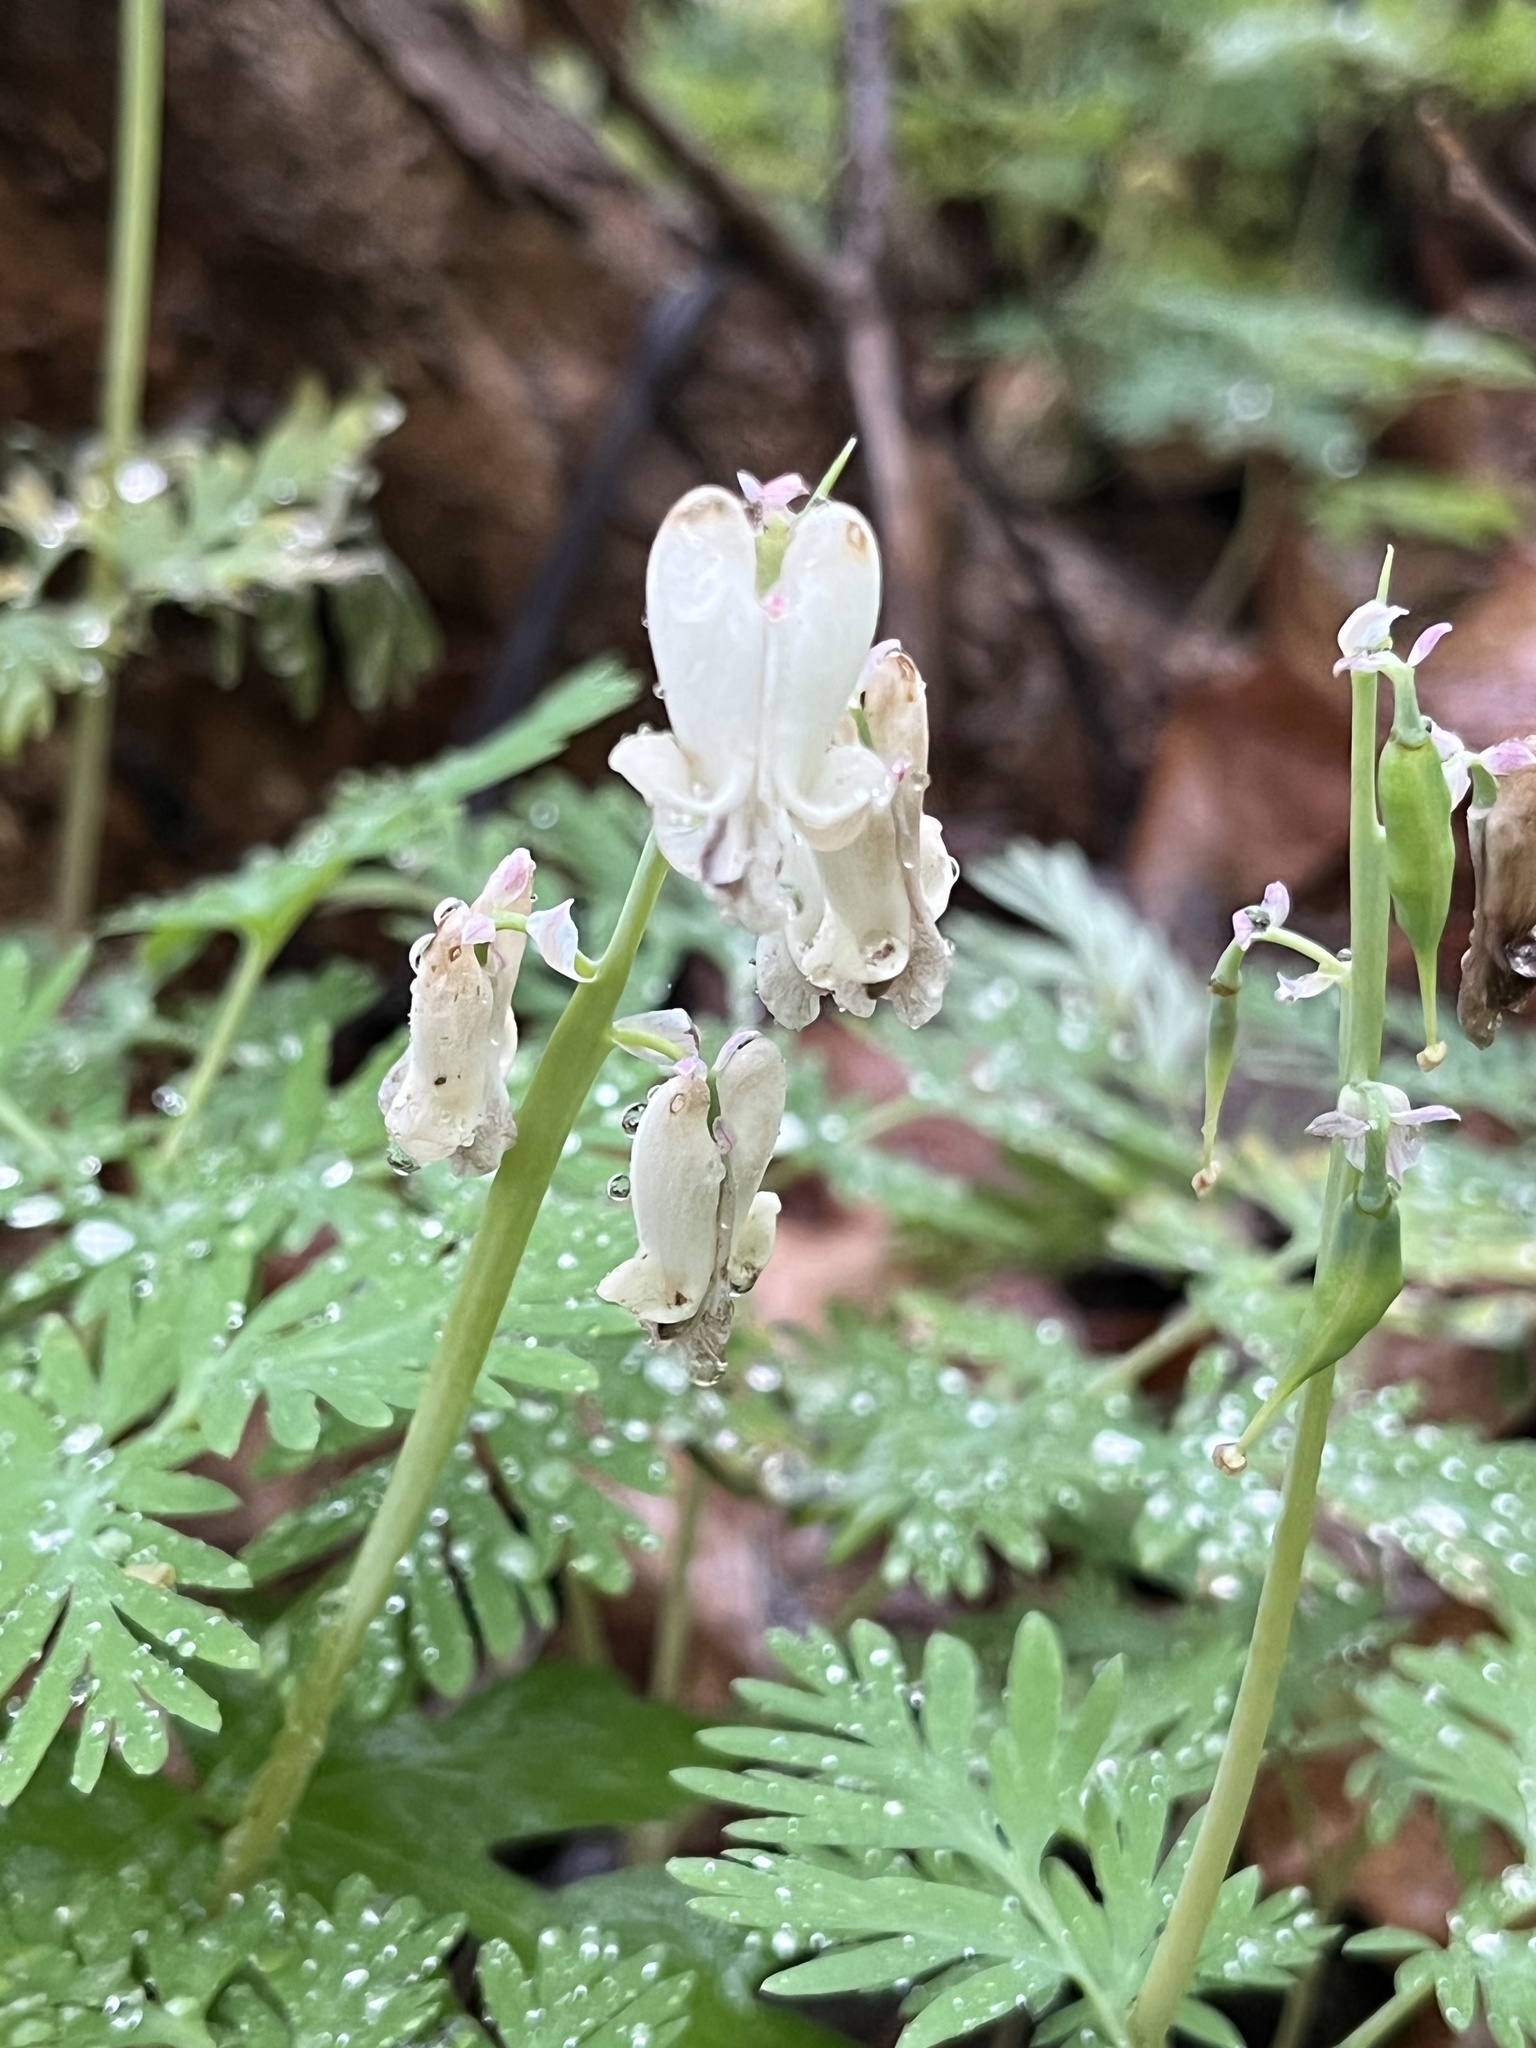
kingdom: Plantae
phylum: Tracheophyta
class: Magnoliopsida
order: Ranunculales
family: Papaveraceae
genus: Dicentra
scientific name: Dicentra canadensis
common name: Squirrel-corn
